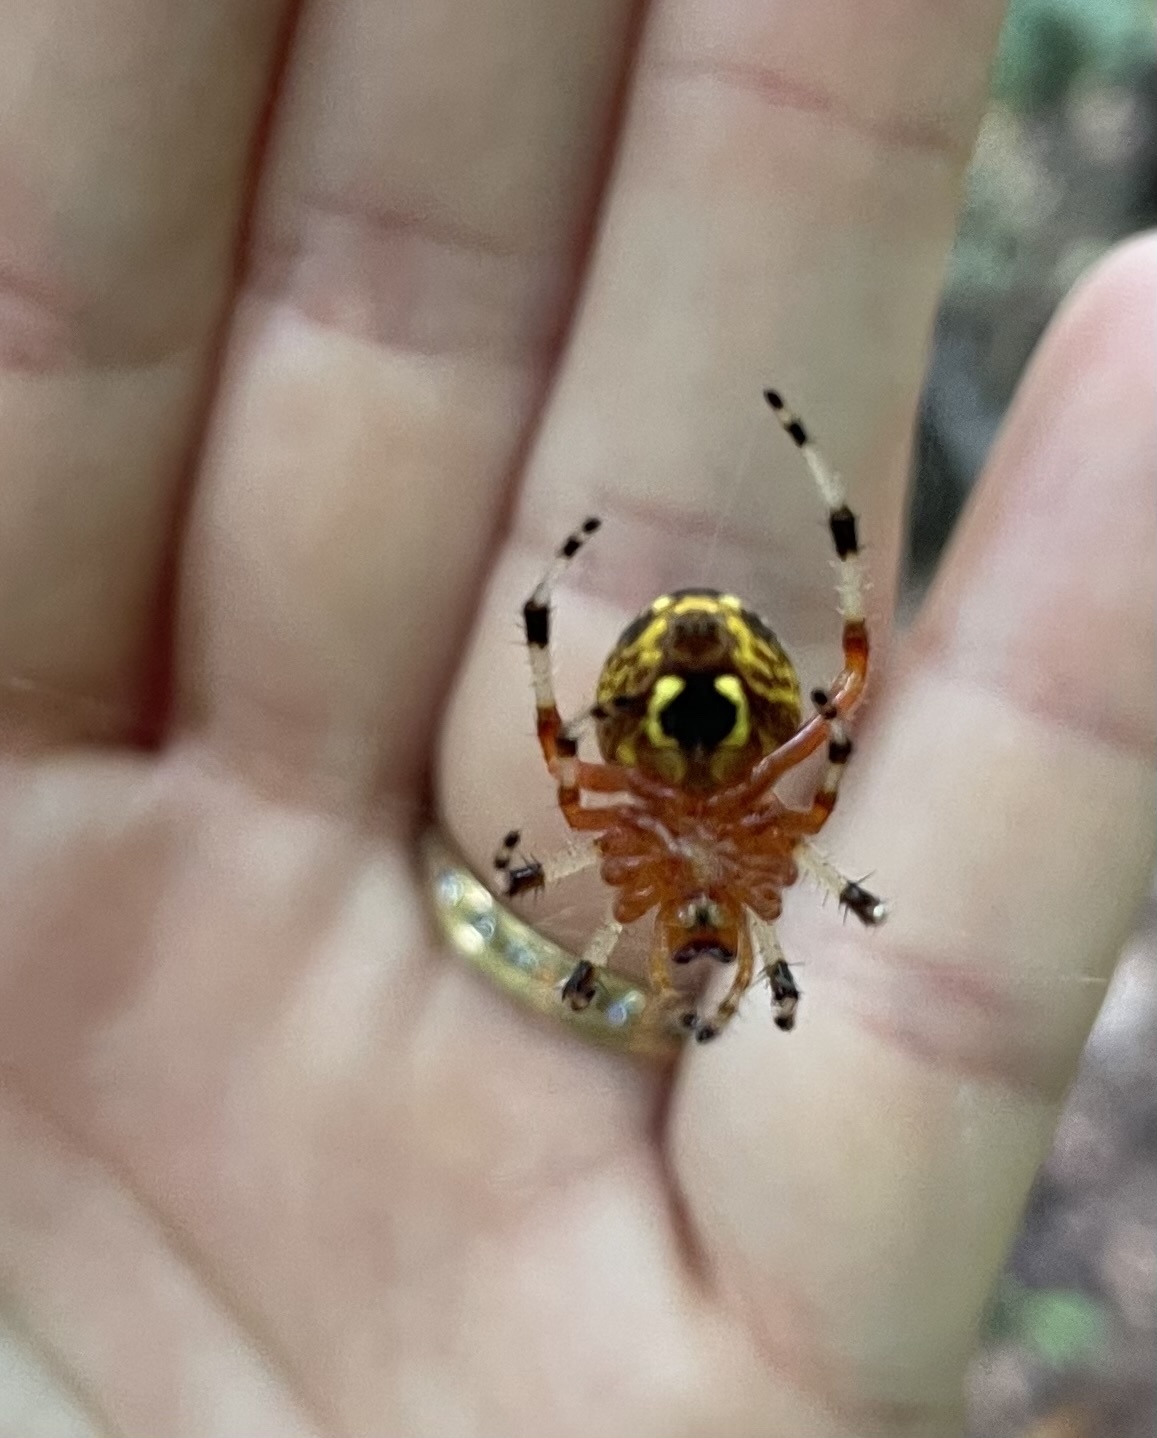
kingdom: Animalia
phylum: Arthropoda
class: Arachnida
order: Araneae
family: Araneidae
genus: Araneus
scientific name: Araneus marmoreus
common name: Marbled orbweaver
